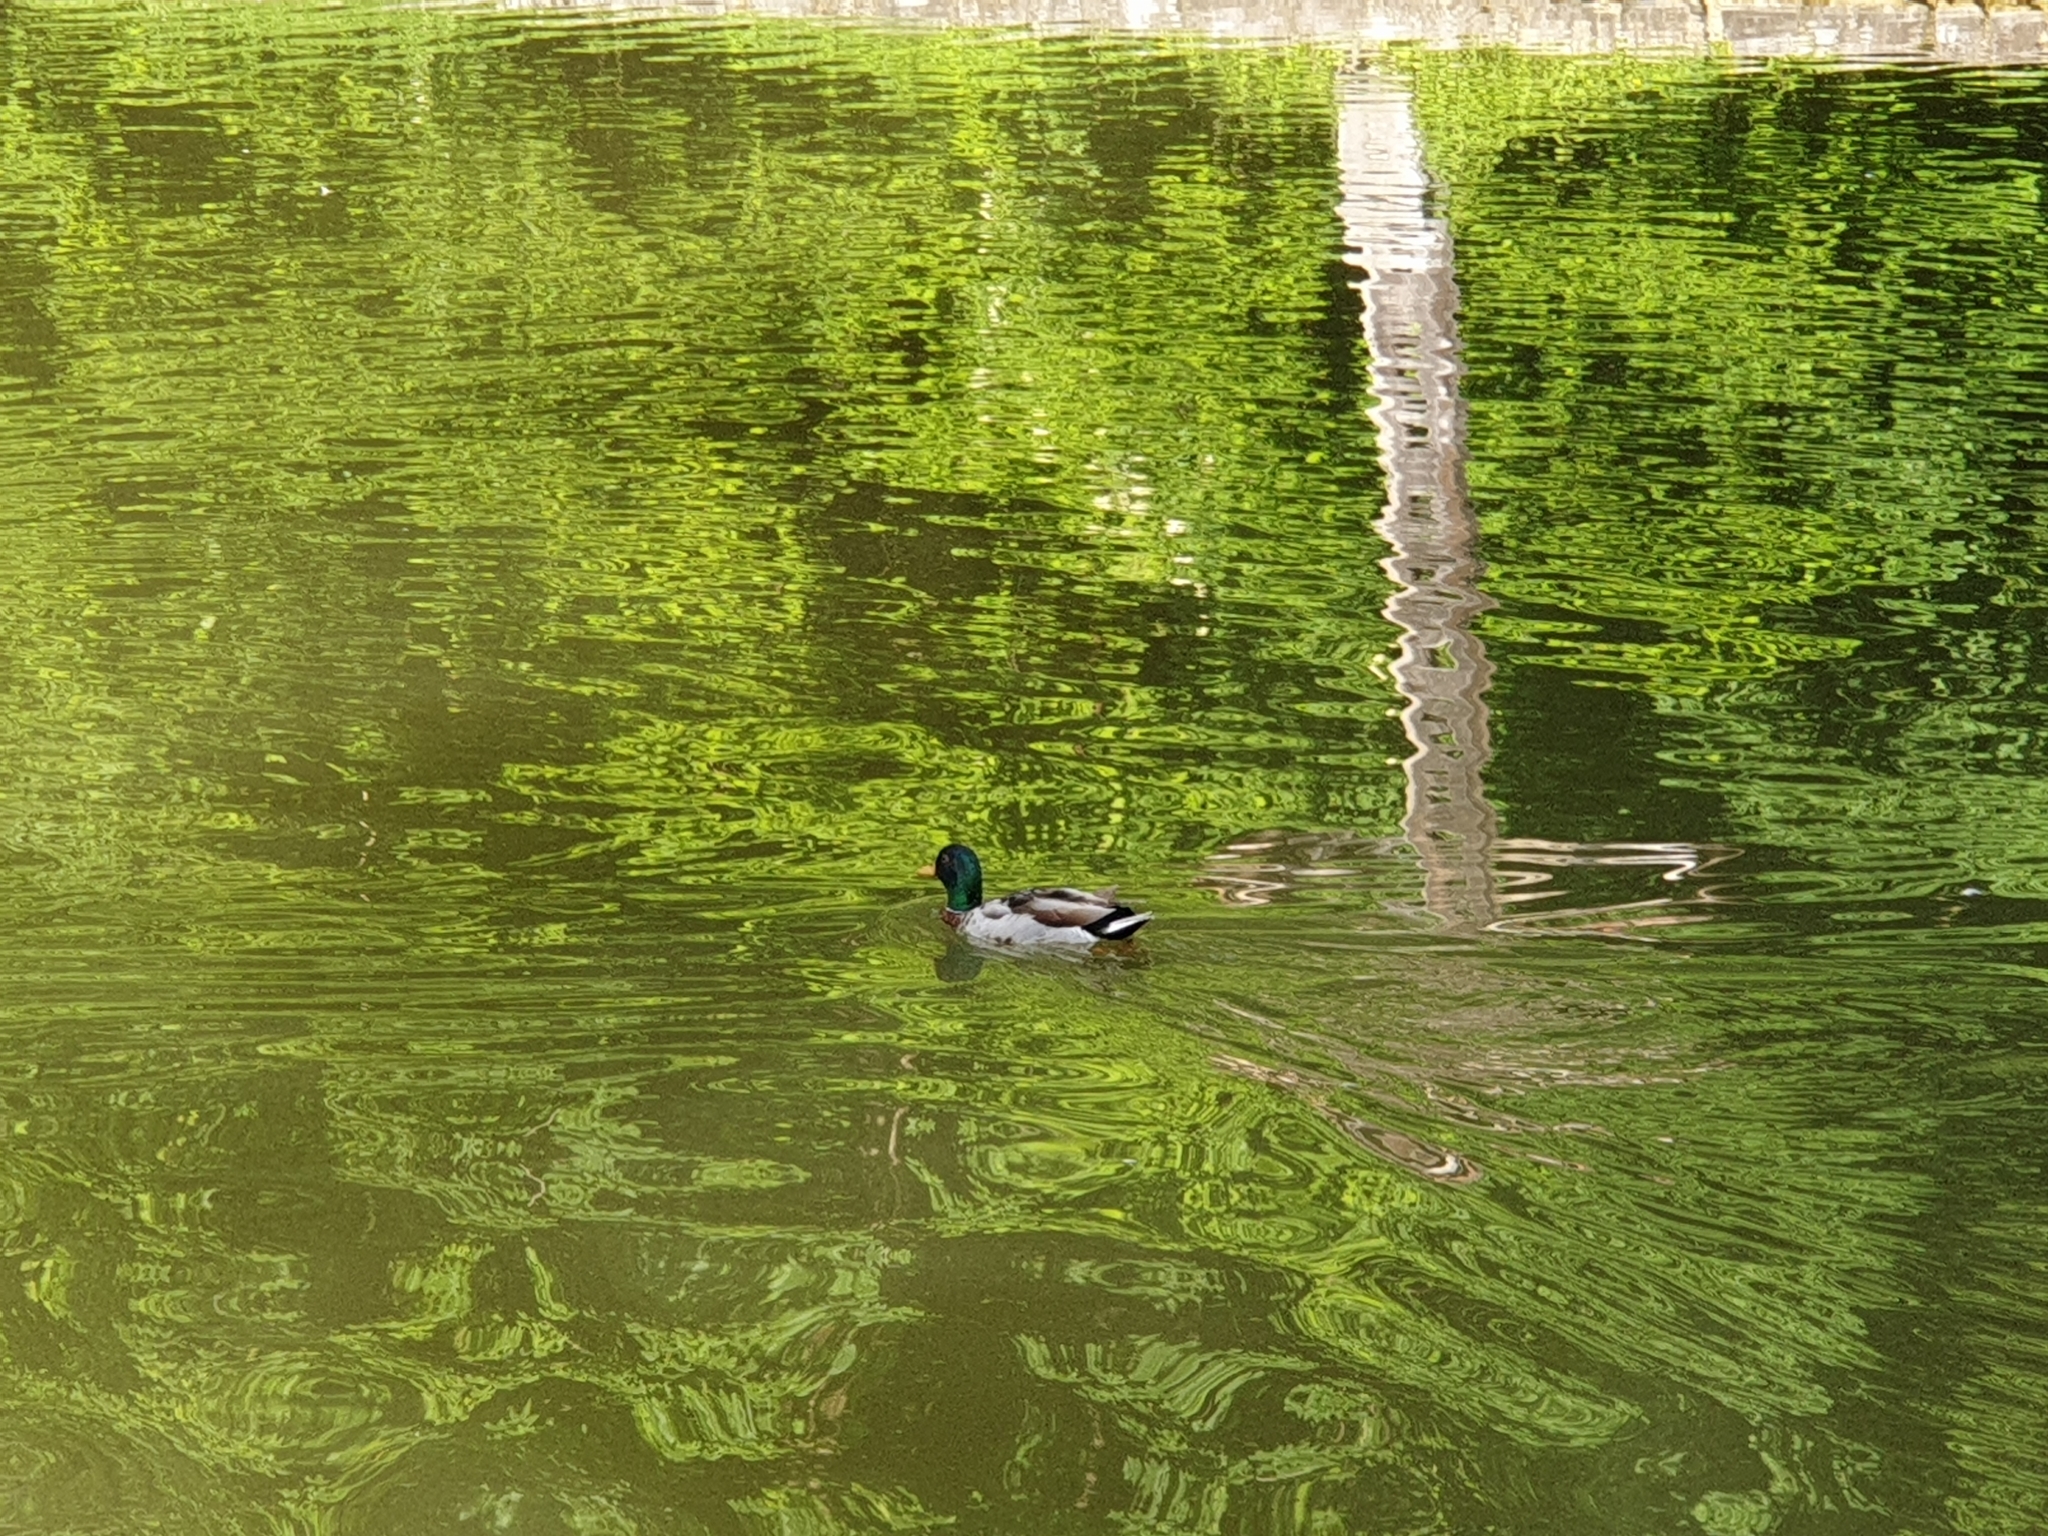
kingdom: Animalia
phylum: Chordata
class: Aves
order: Anseriformes
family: Anatidae
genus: Anas
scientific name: Anas platyrhynchos
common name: Mallard
